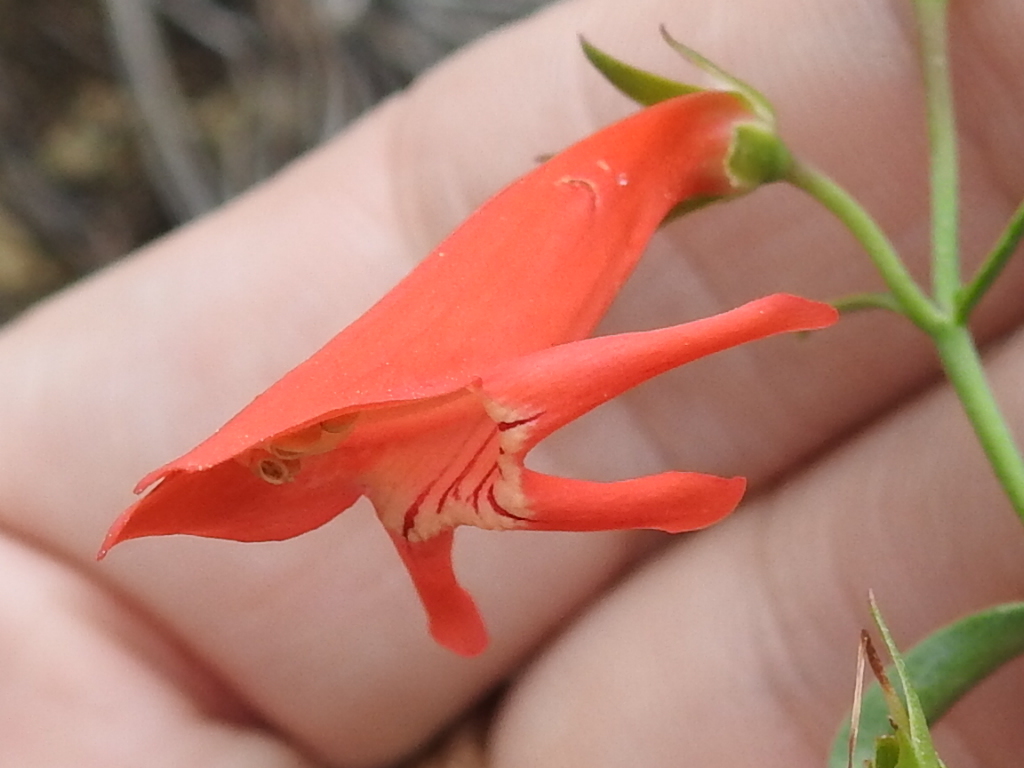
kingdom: Plantae
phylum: Tracheophyta
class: Magnoliopsida
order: Lamiales
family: Plantaginaceae
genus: Penstemon
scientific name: Penstemon barbatus
